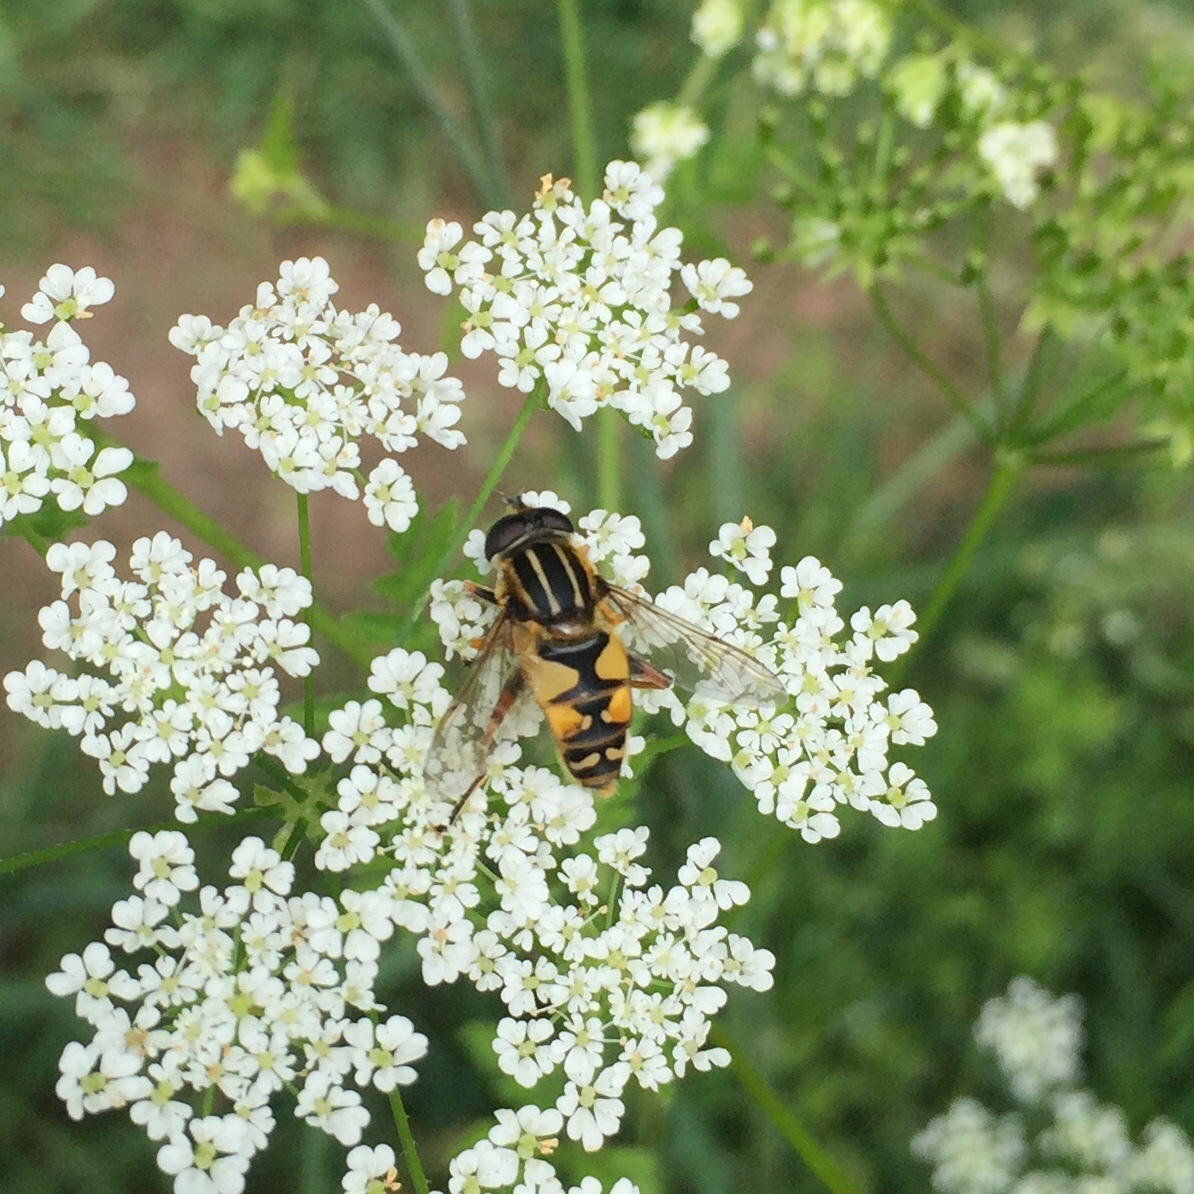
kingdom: Animalia
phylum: Arthropoda
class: Insecta
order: Diptera
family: Syrphidae
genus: Helophilus
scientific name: Helophilus pendulus
